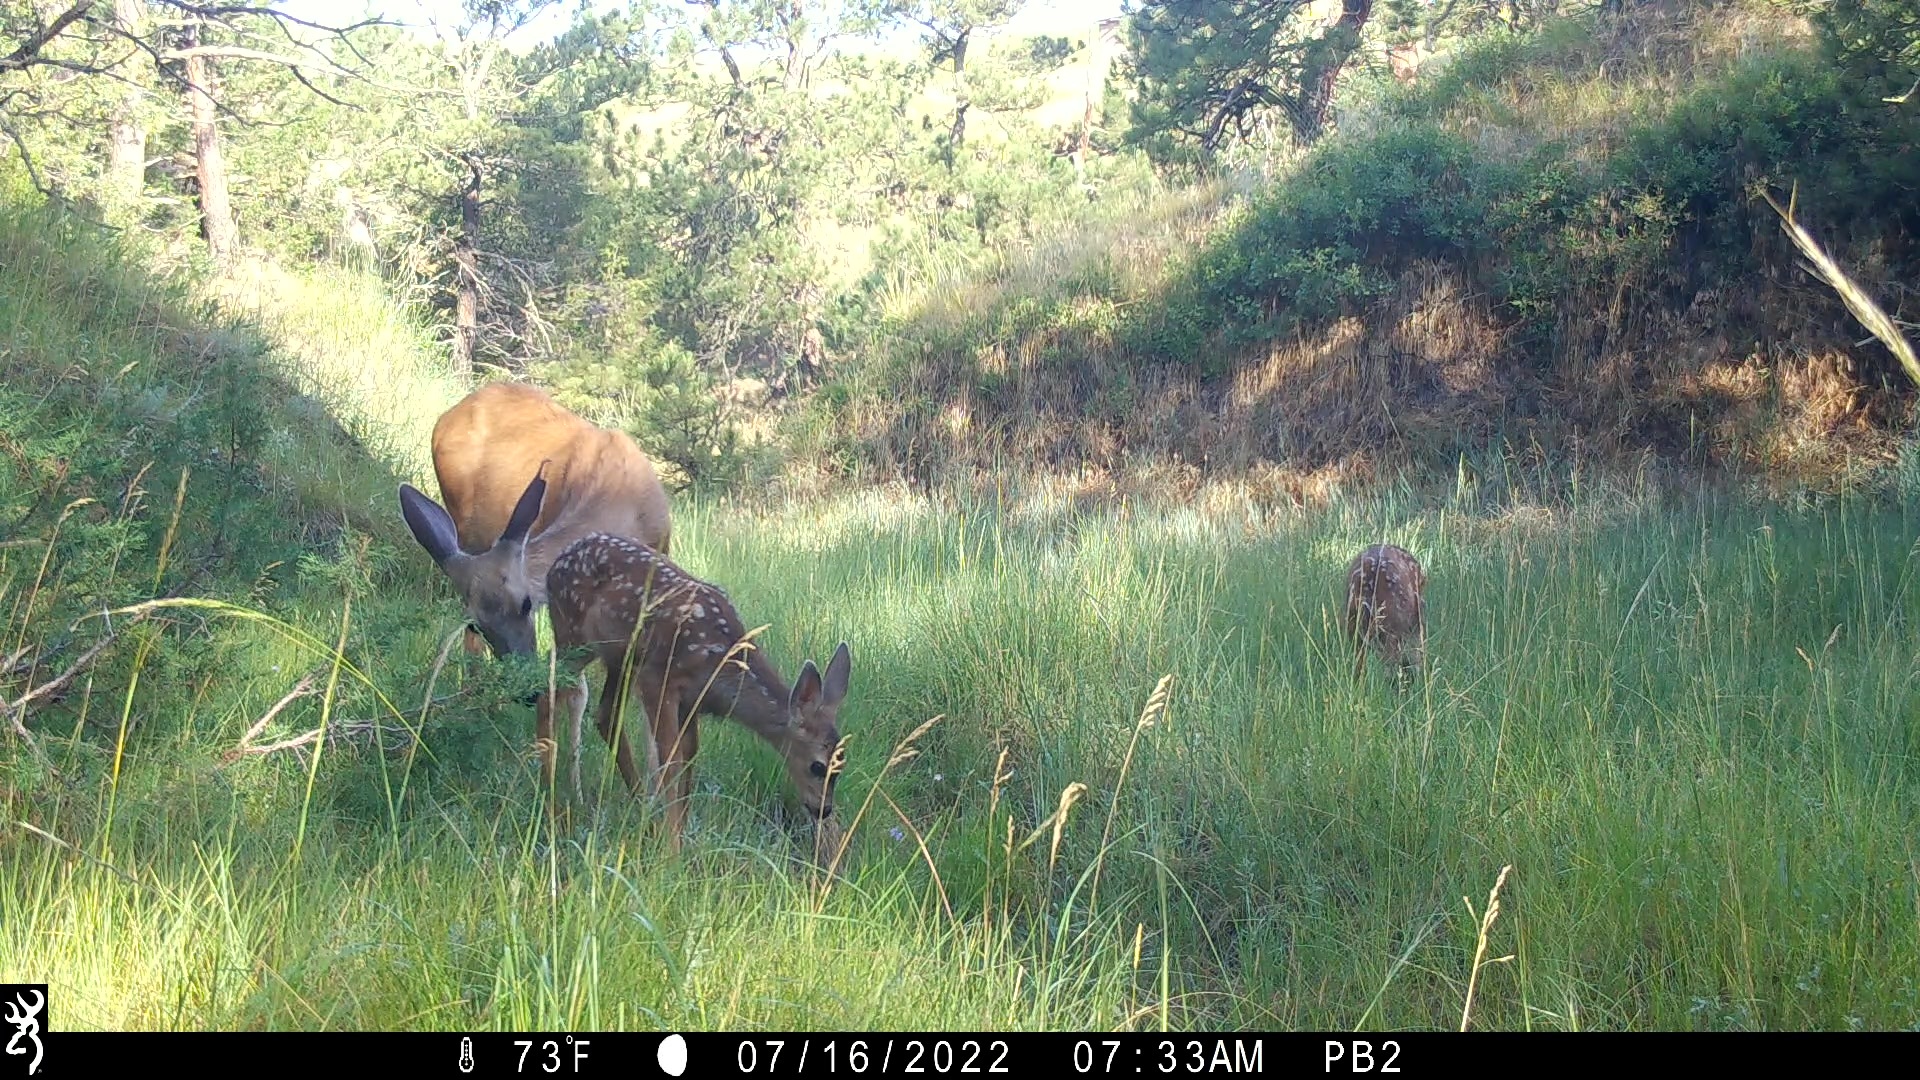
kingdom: Animalia
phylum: Chordata
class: Mammalia
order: Artiodactyla
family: Cervidae
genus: Odocoileus
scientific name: Odocoileus hemionus
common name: Mule deer
